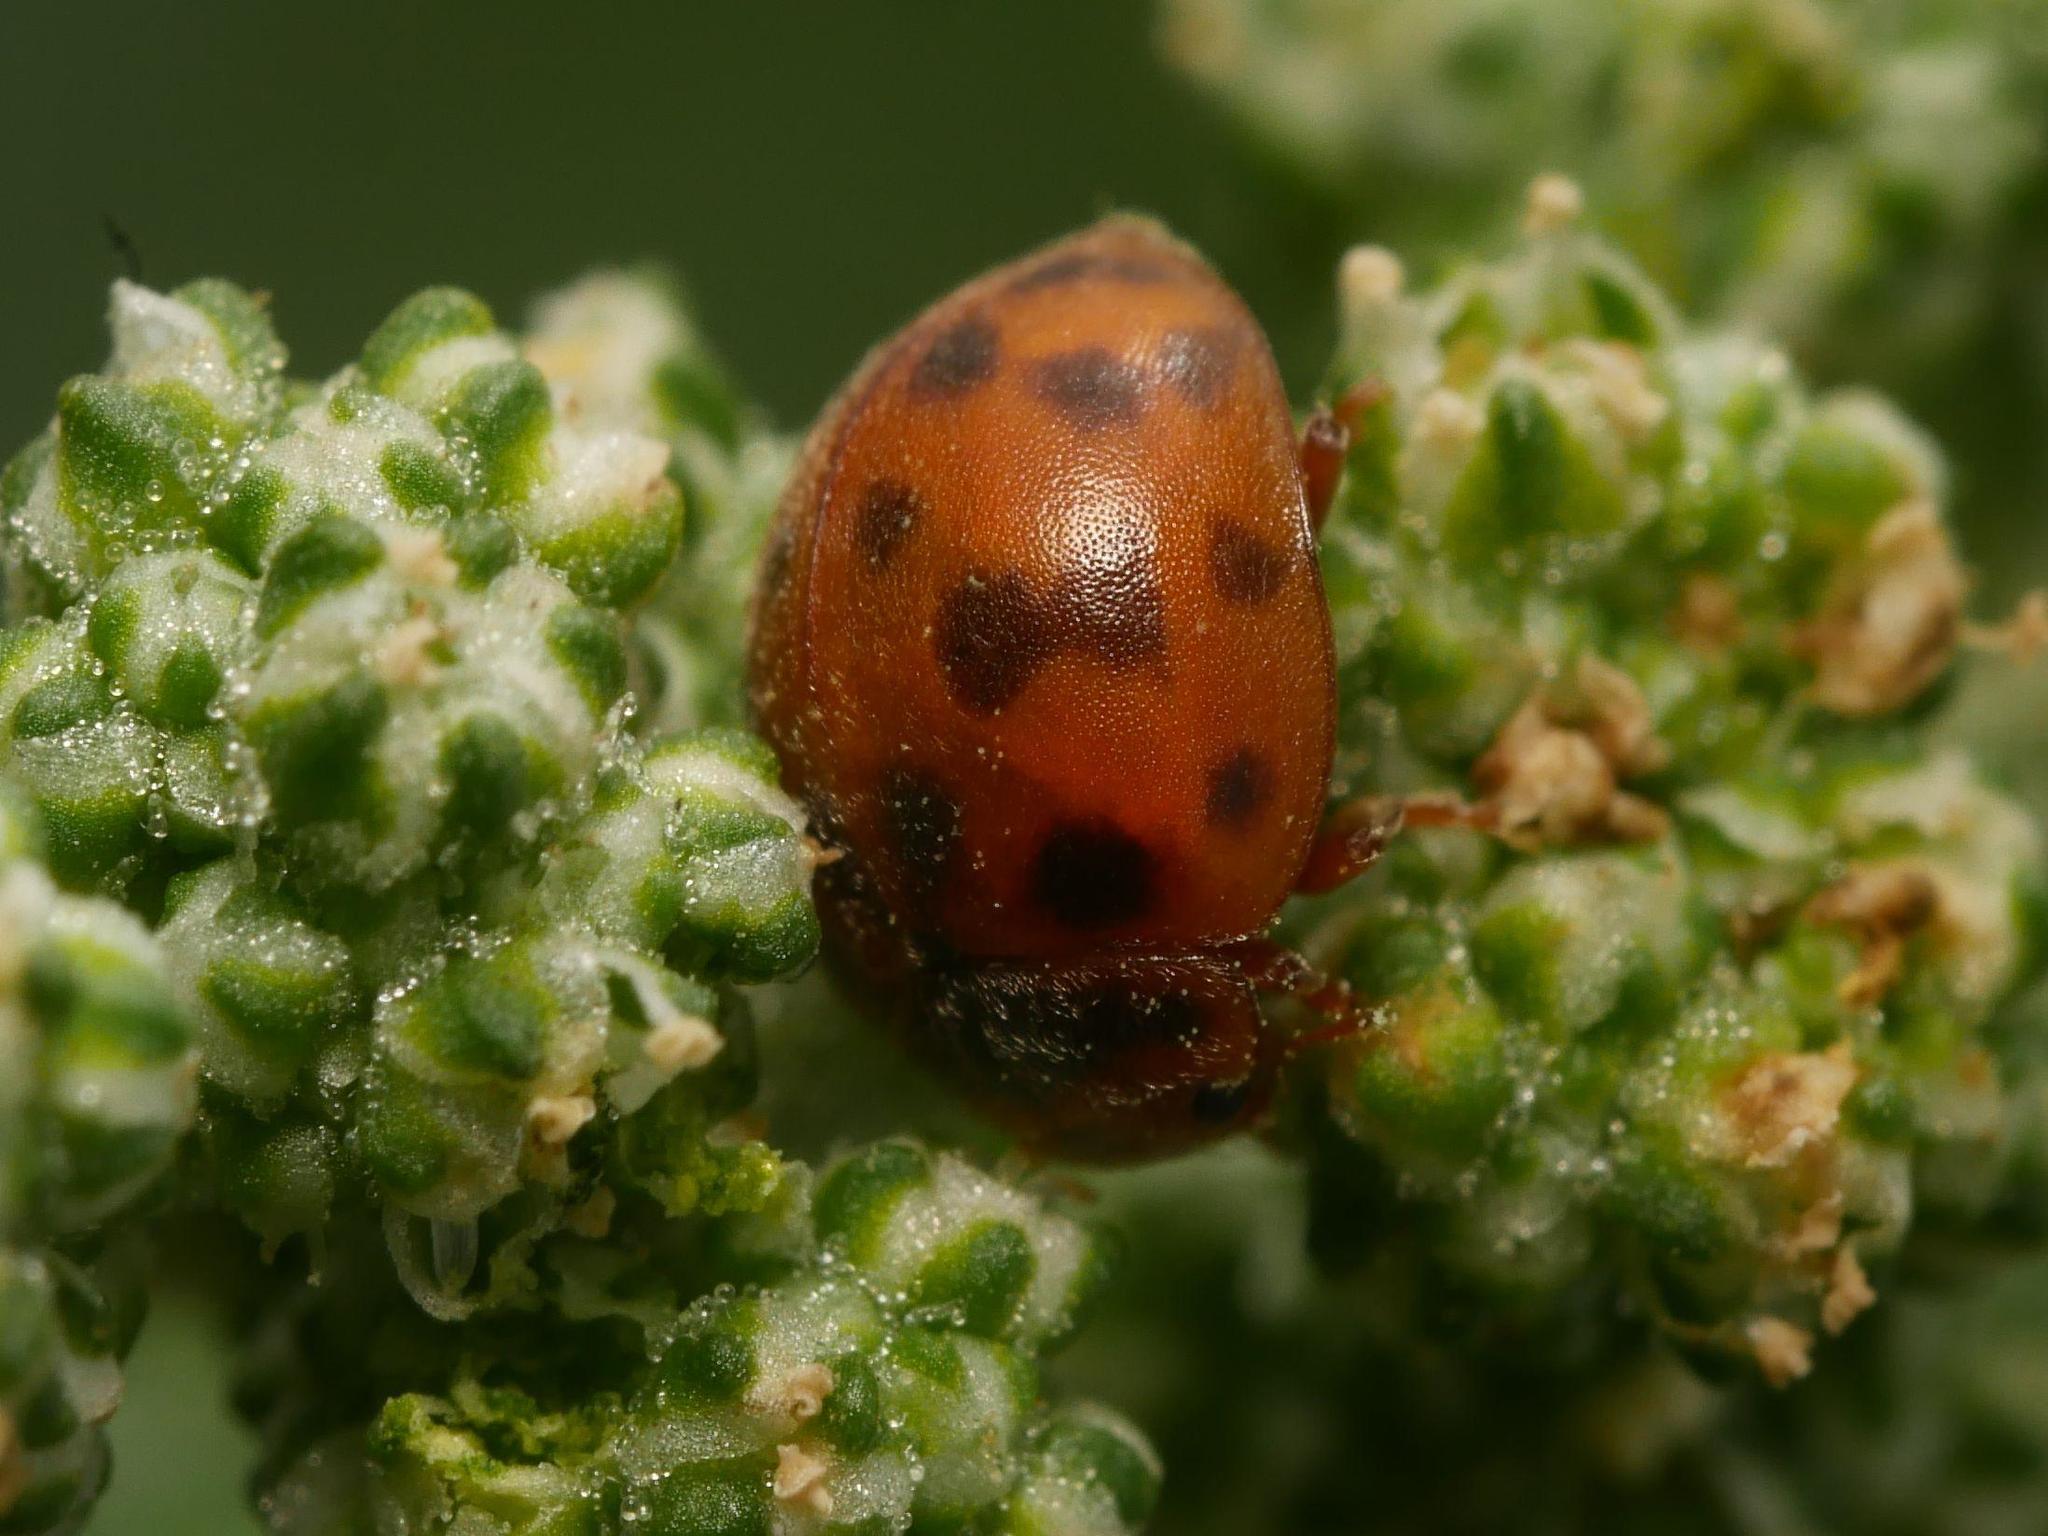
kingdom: Animalia
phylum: Arthropoda
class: Insecta
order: Coleoptera
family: Coccinellidae
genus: Subcoccinella
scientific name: Subcoccinella vigintiquatuorpunctata
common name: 24-spot ladybird
